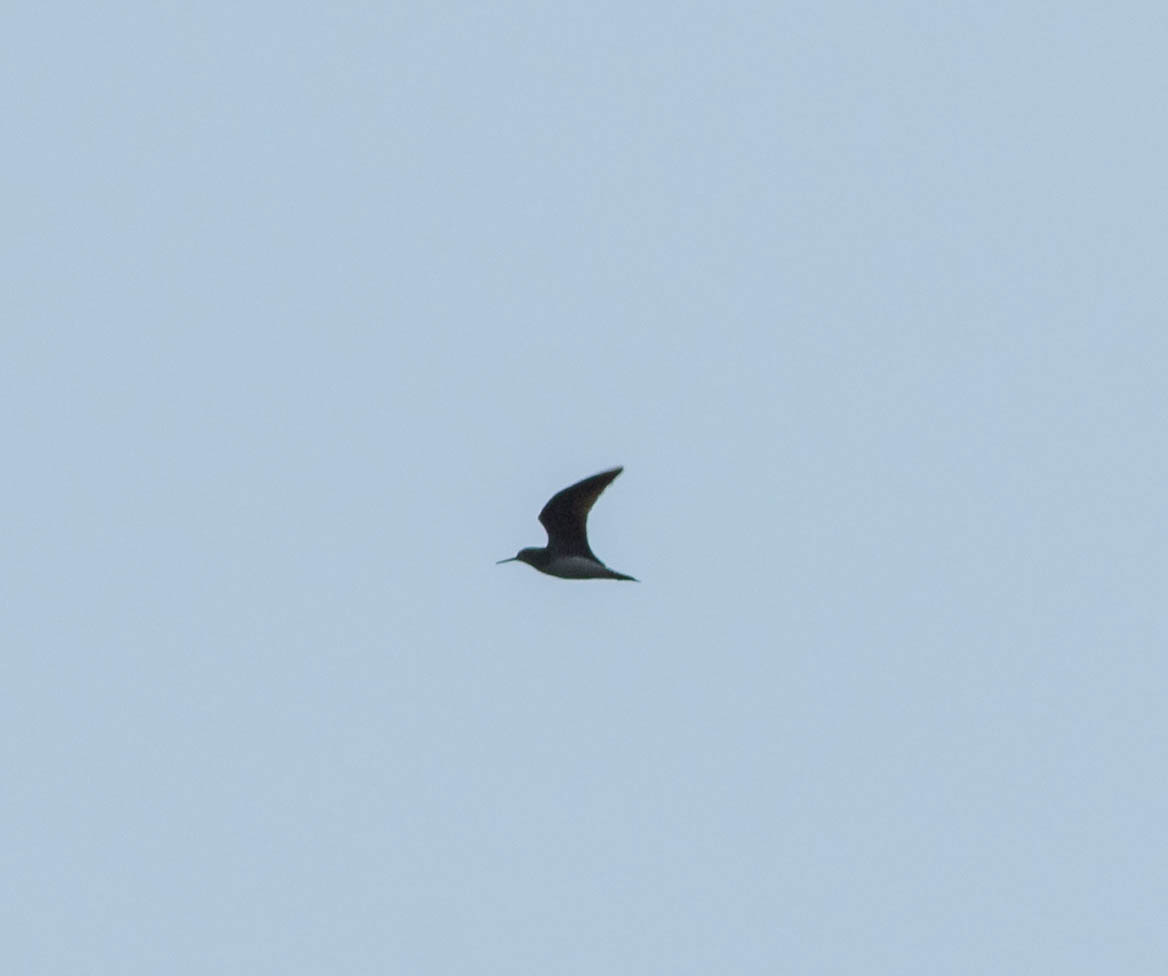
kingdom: Animalia
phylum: Chordata
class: Aves
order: Charadriiformes
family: Scolopacidae
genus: Tringa
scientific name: Tringa solitaria
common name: Solitary sandpiper
